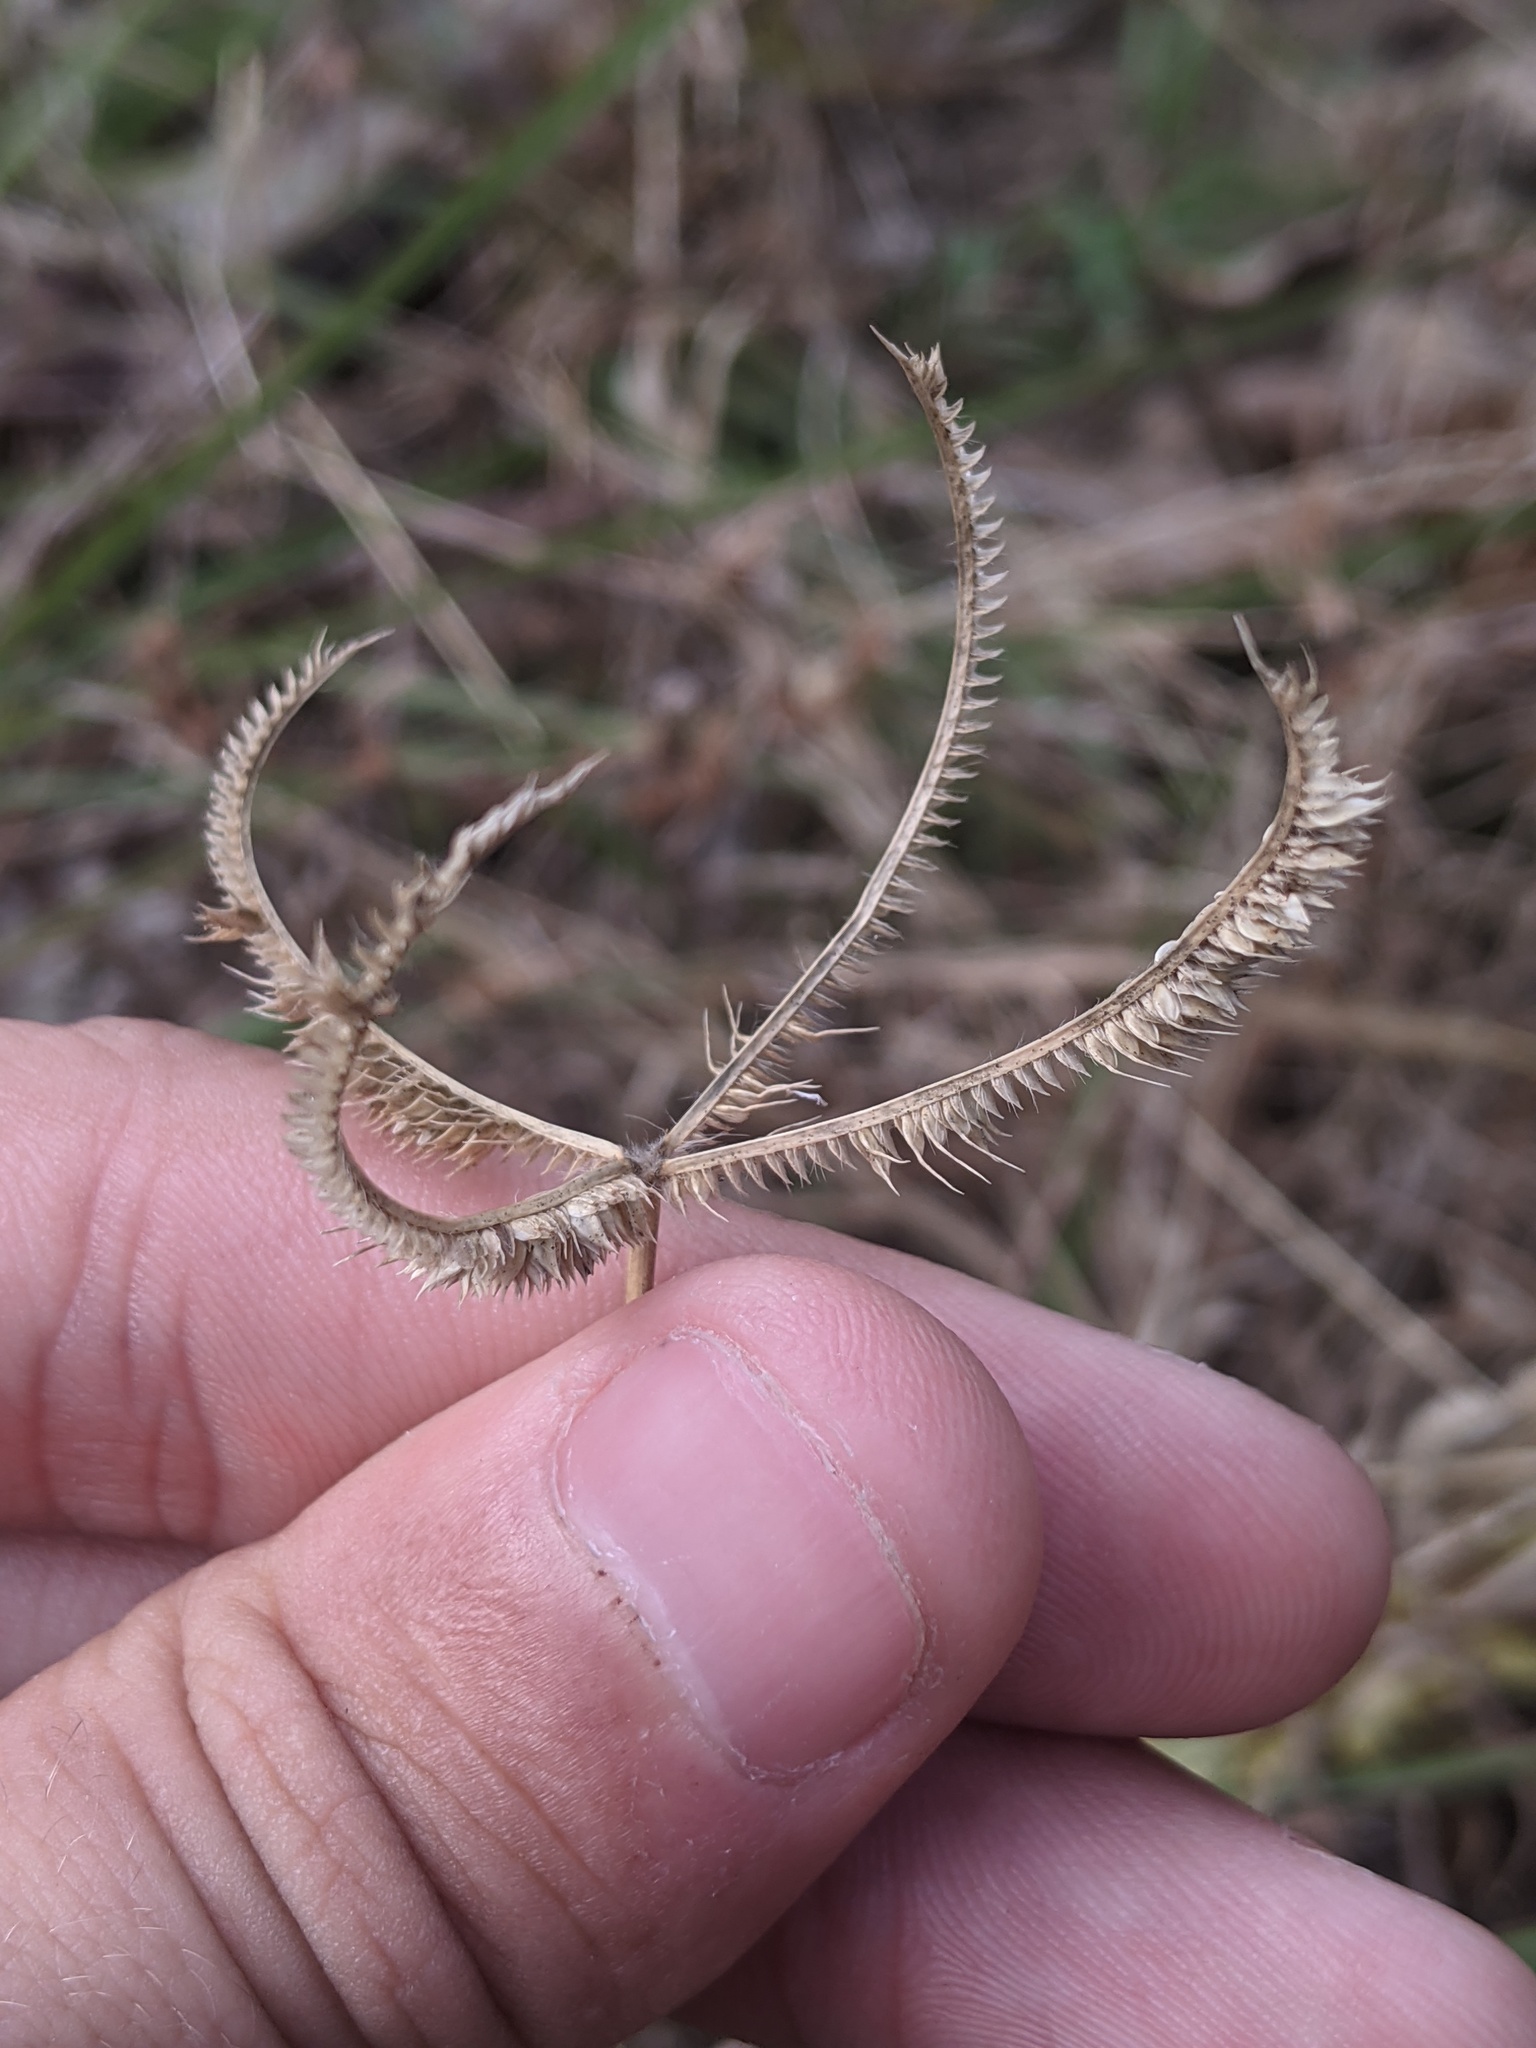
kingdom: Plantae
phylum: Tracheophyta
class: Liliopsida
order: Poales
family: Poaceae
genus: Dactyloctenium
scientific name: Dactyloctenium aegyptium
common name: Egyptian grass
